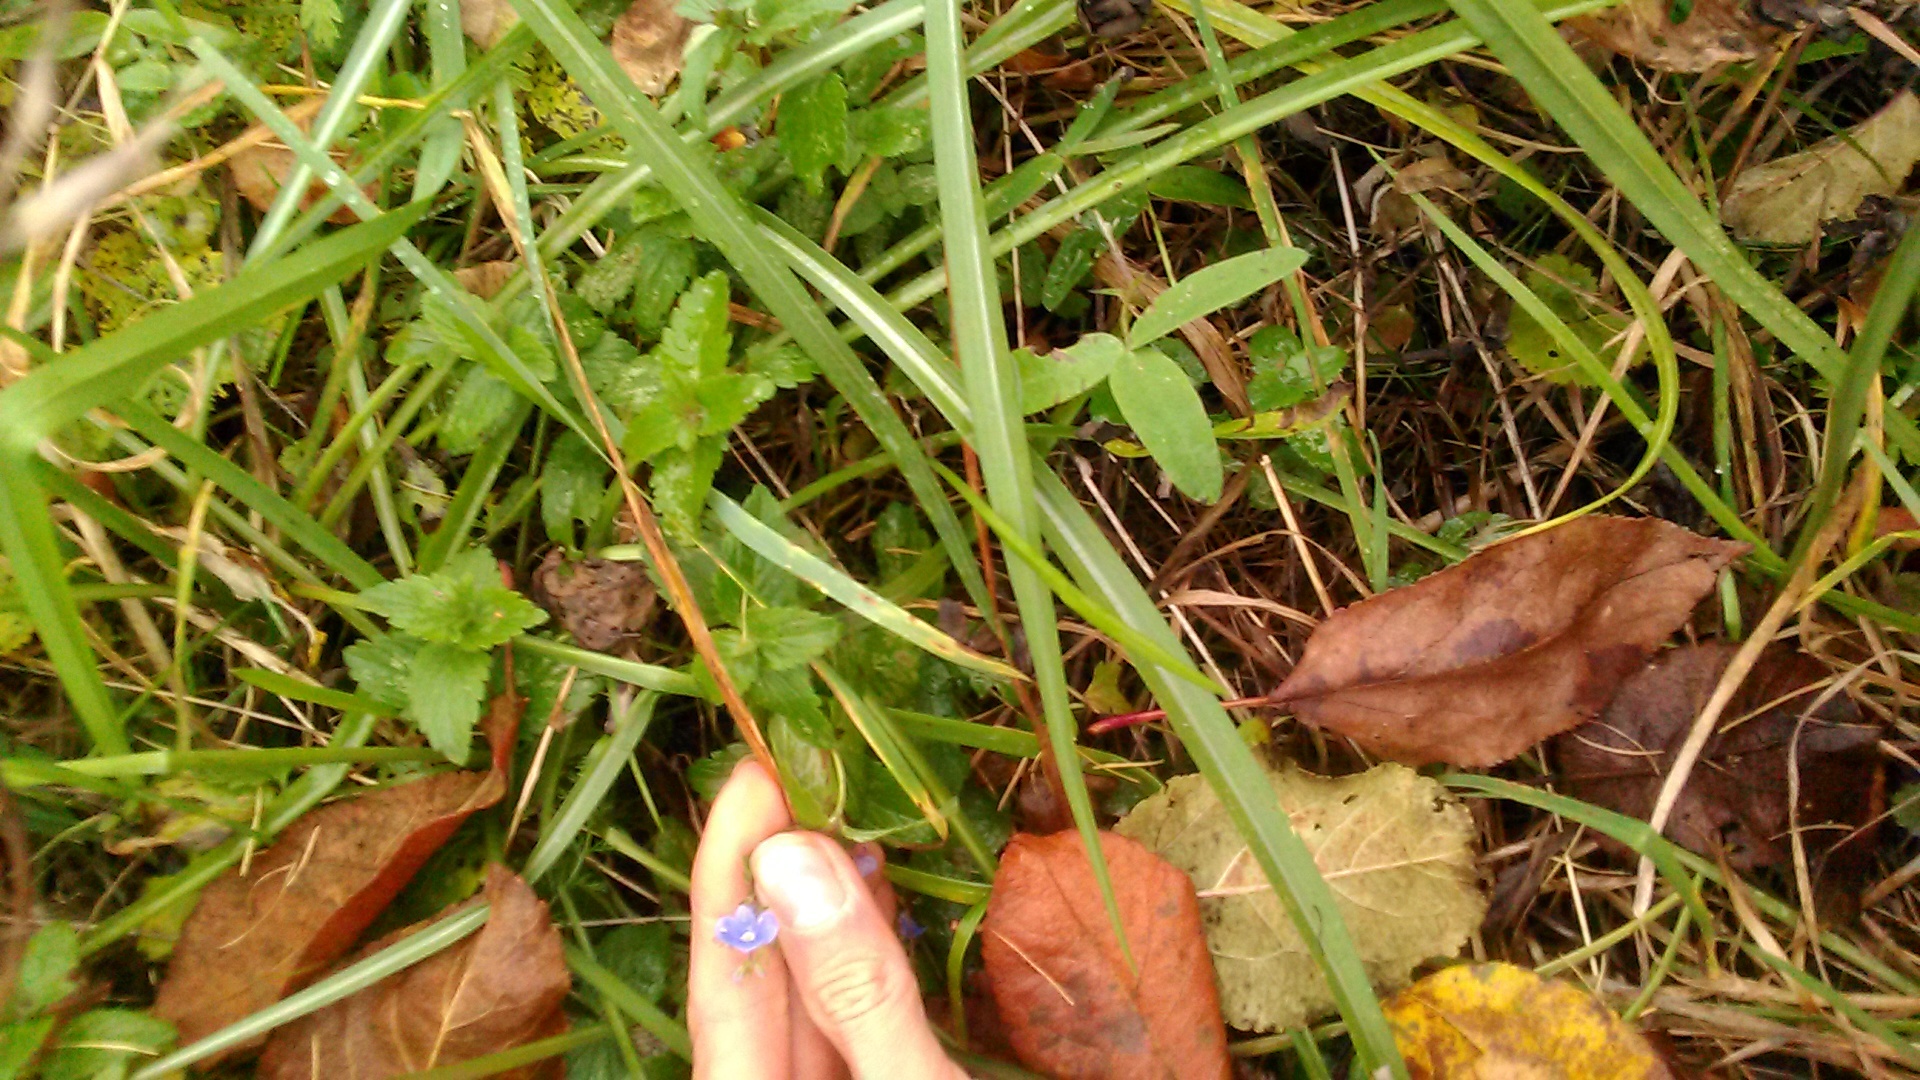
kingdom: Plantae
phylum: Tracheophyta
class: Magnoliopsida
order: Lamiales
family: Plantaginaceae
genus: Veronica
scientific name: Veronica chamaedrys
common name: Germander speedwell
